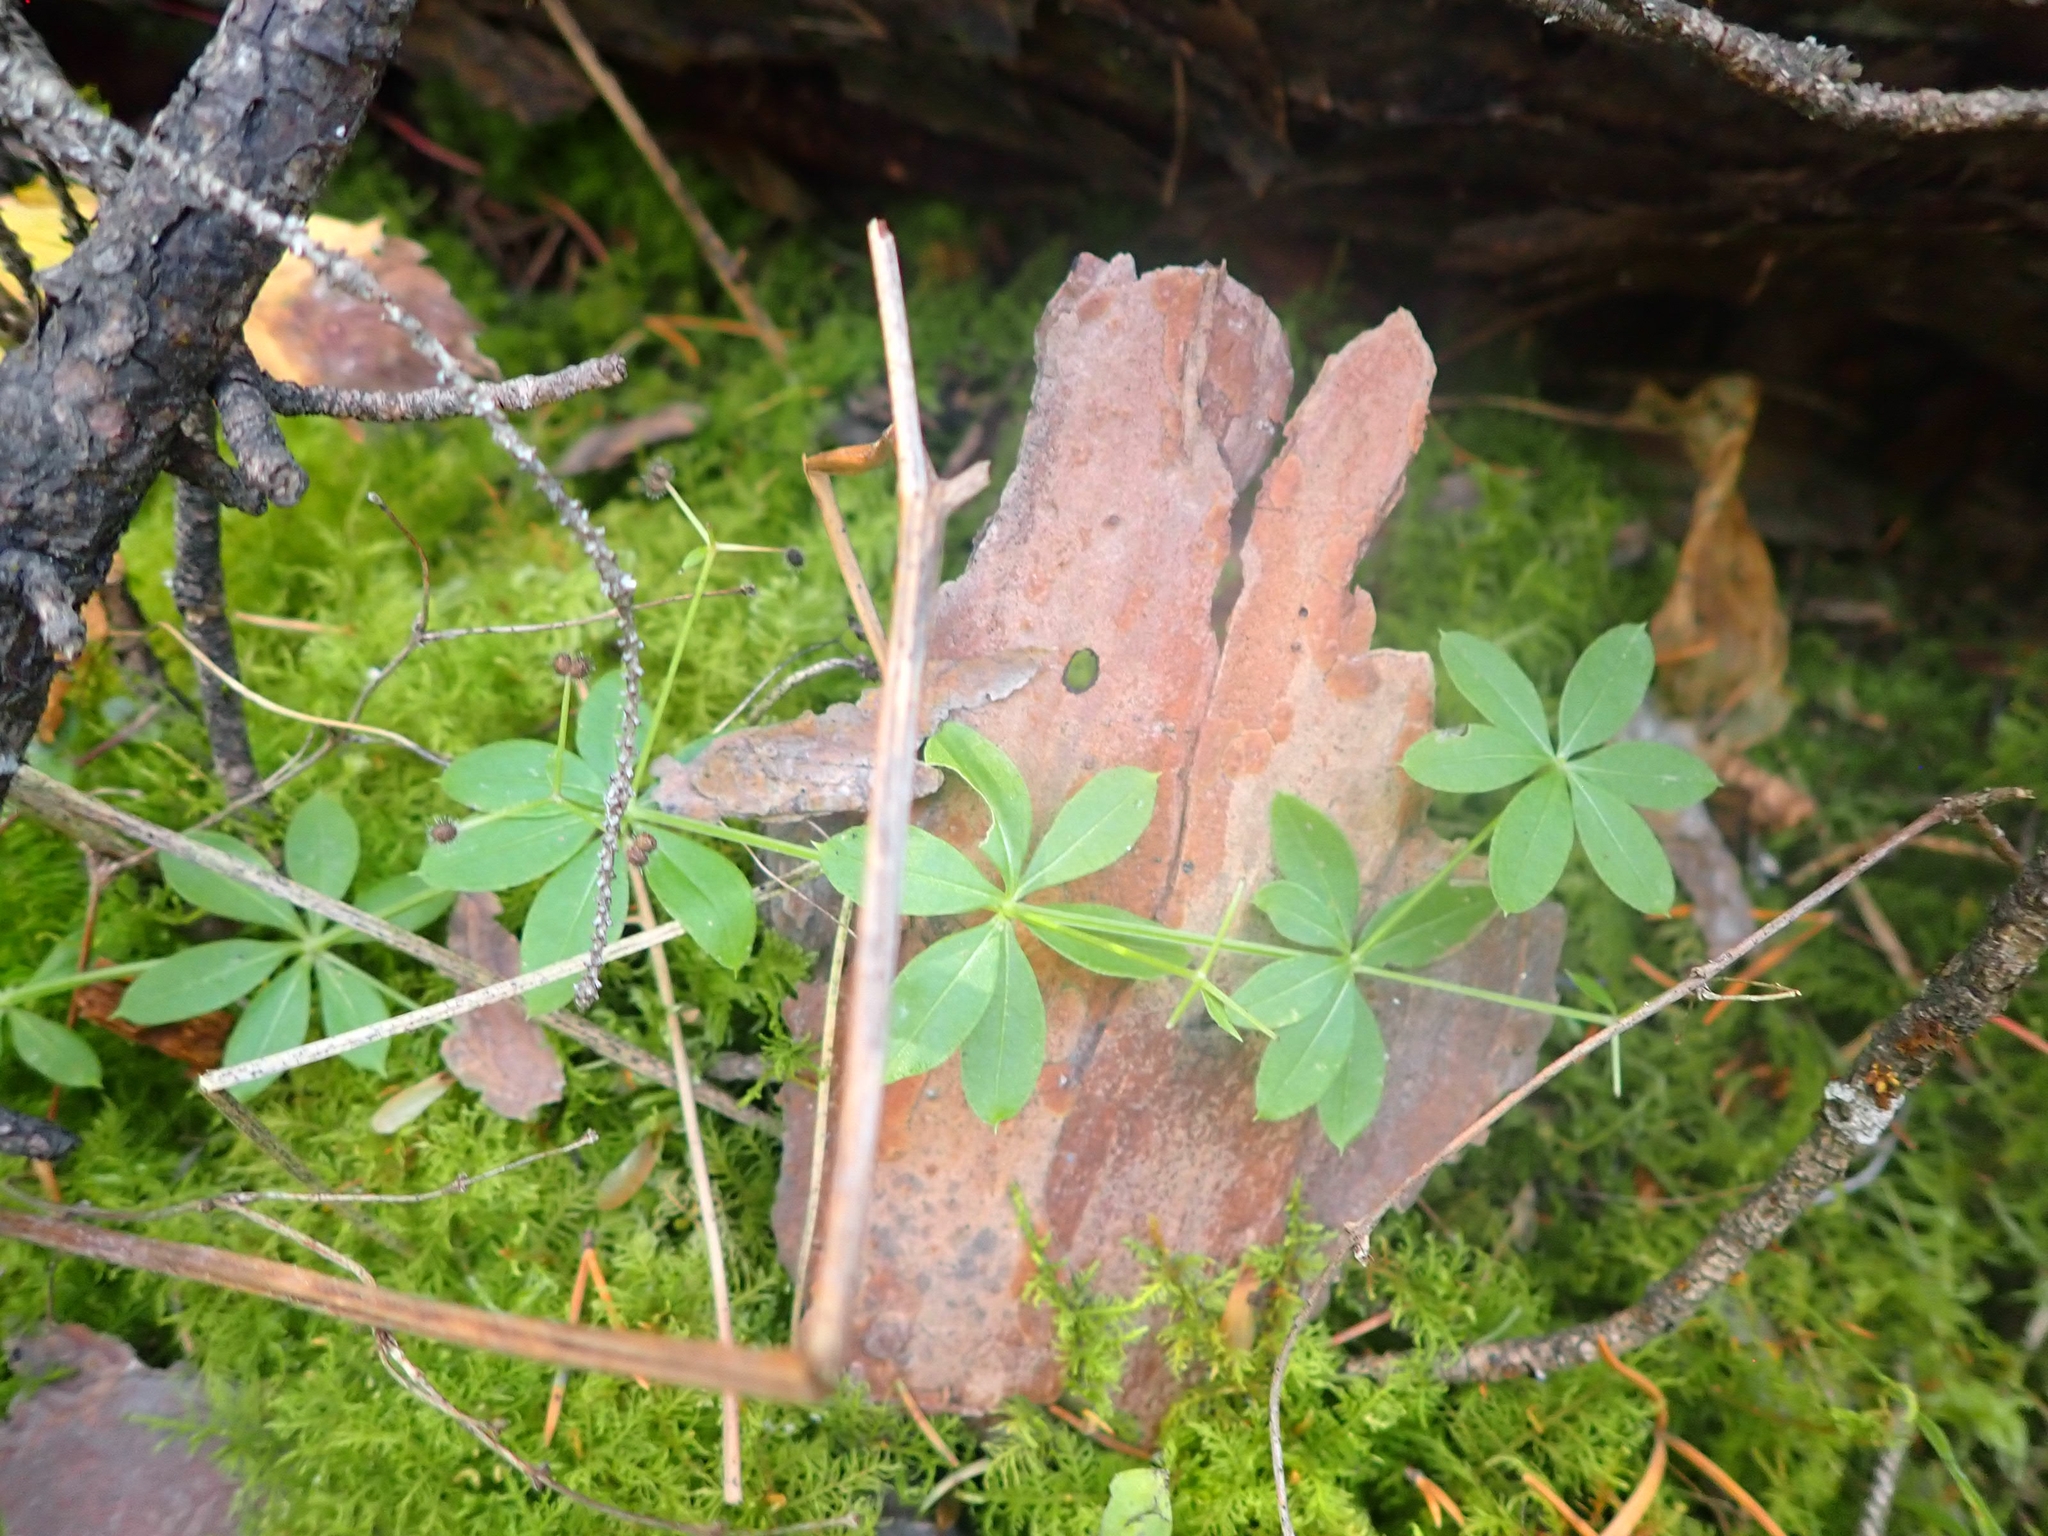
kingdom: Plantae
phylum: Tracheophyta
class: Magnoliopsida
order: Gentianales
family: Rubiaceae
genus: Galium
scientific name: Galium triflorum
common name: Fragrant bedstraw
